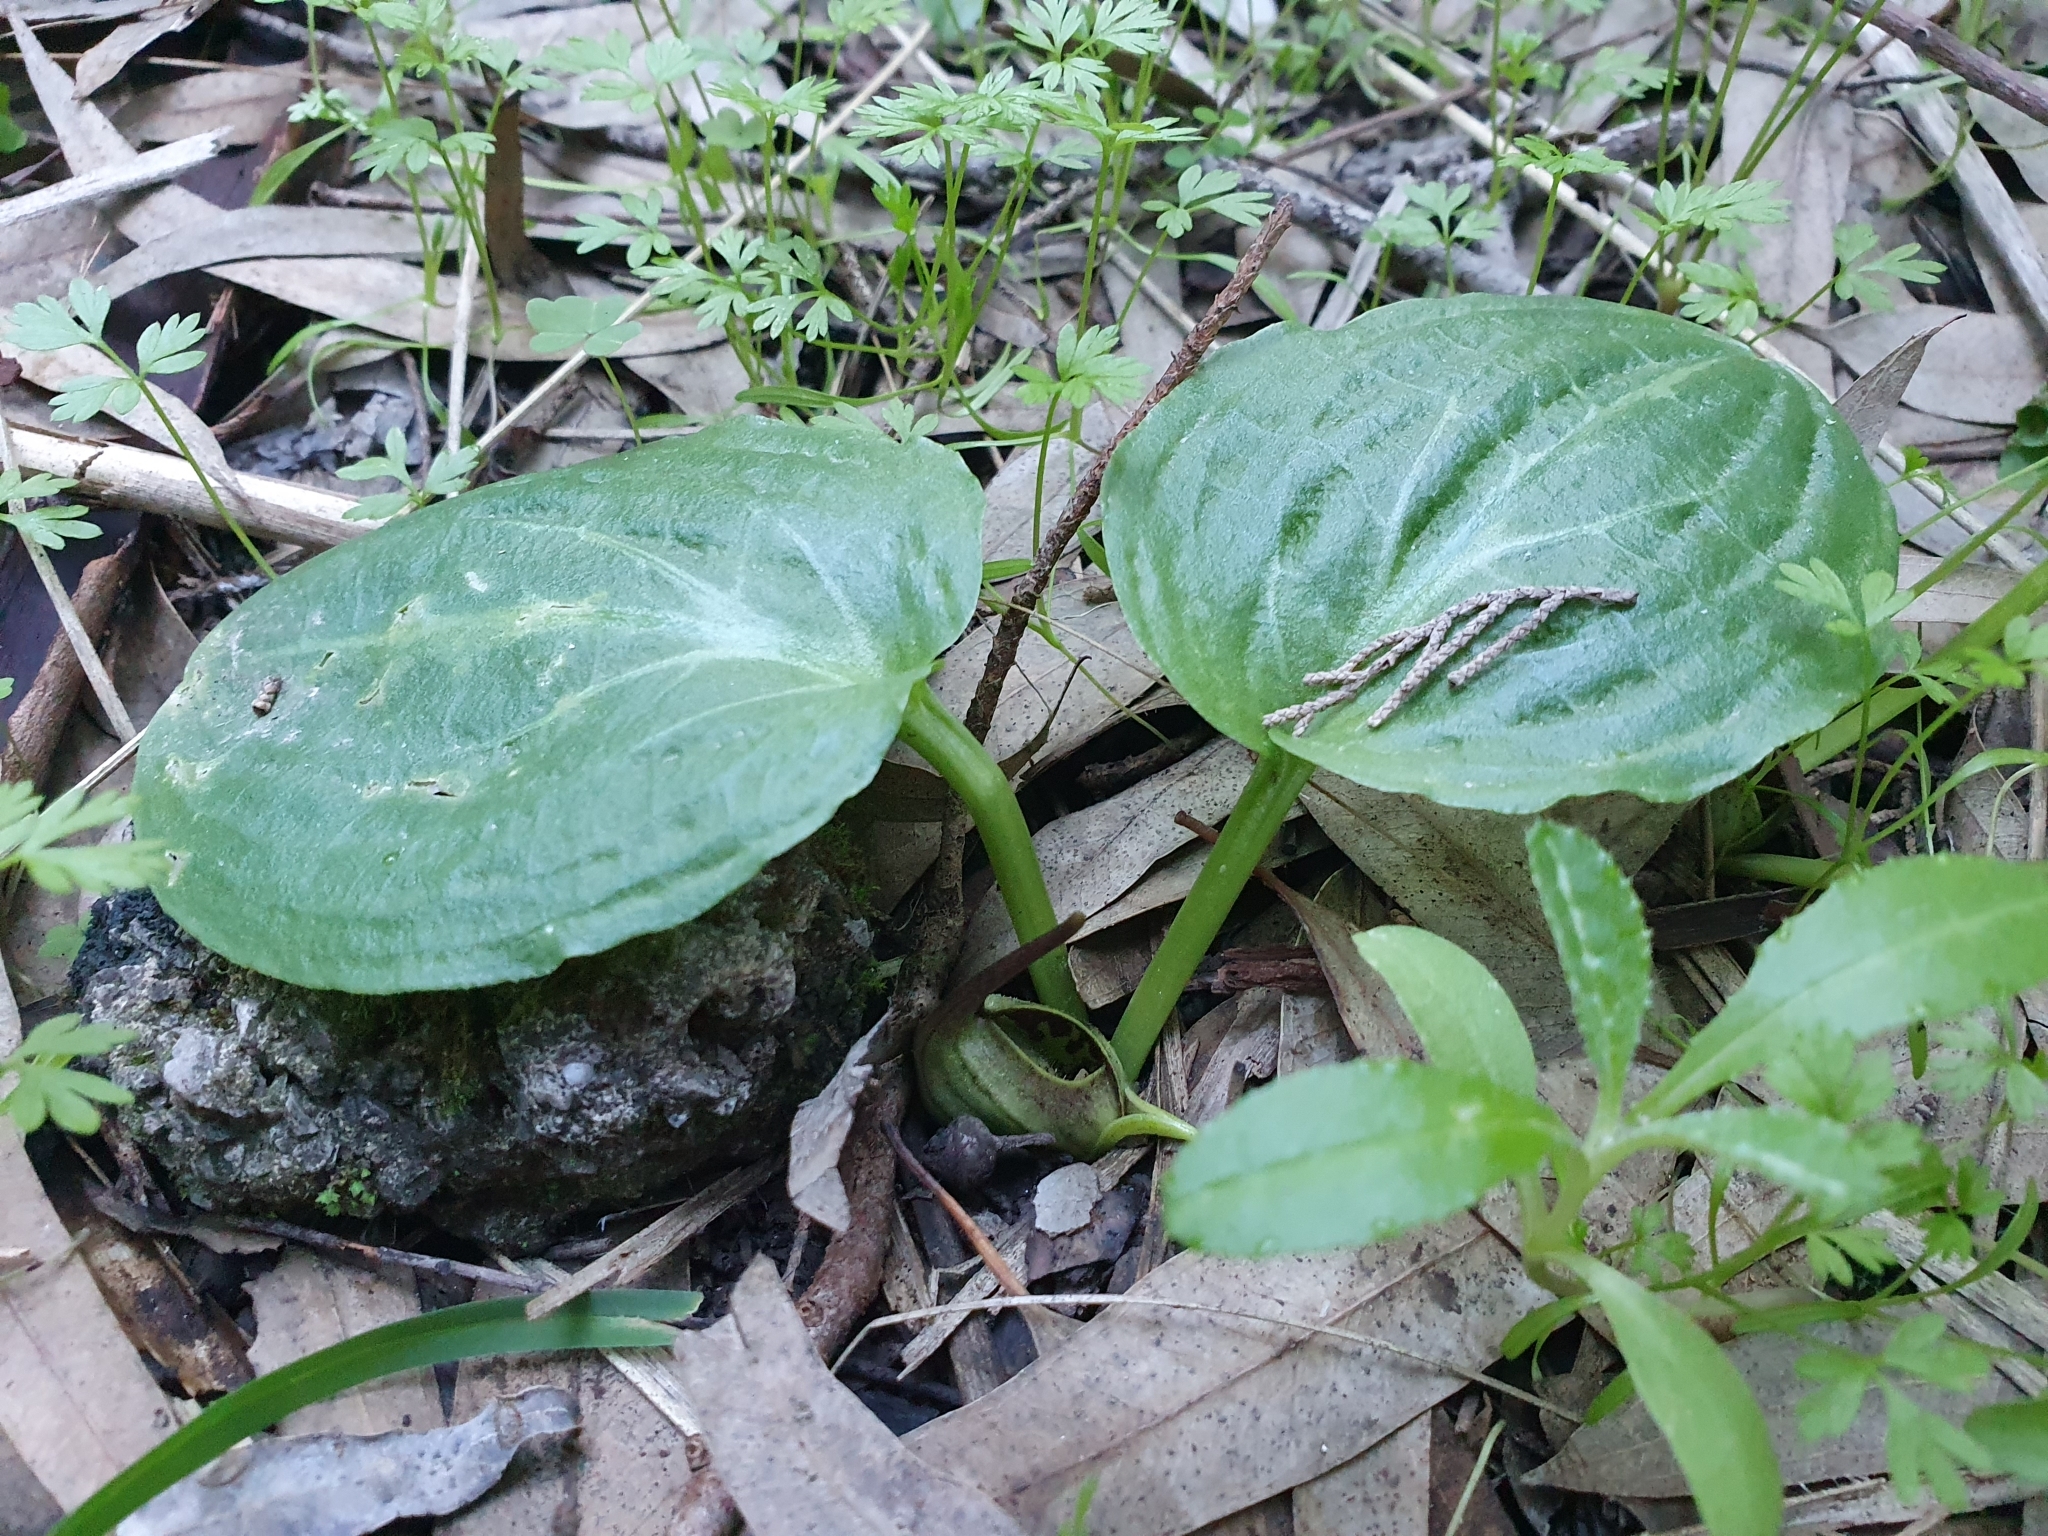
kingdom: Plantae
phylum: Tracheophyta
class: Liliopsida
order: Alismatales
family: Araceae
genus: Ambrosina
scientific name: Ambrosina bassii
